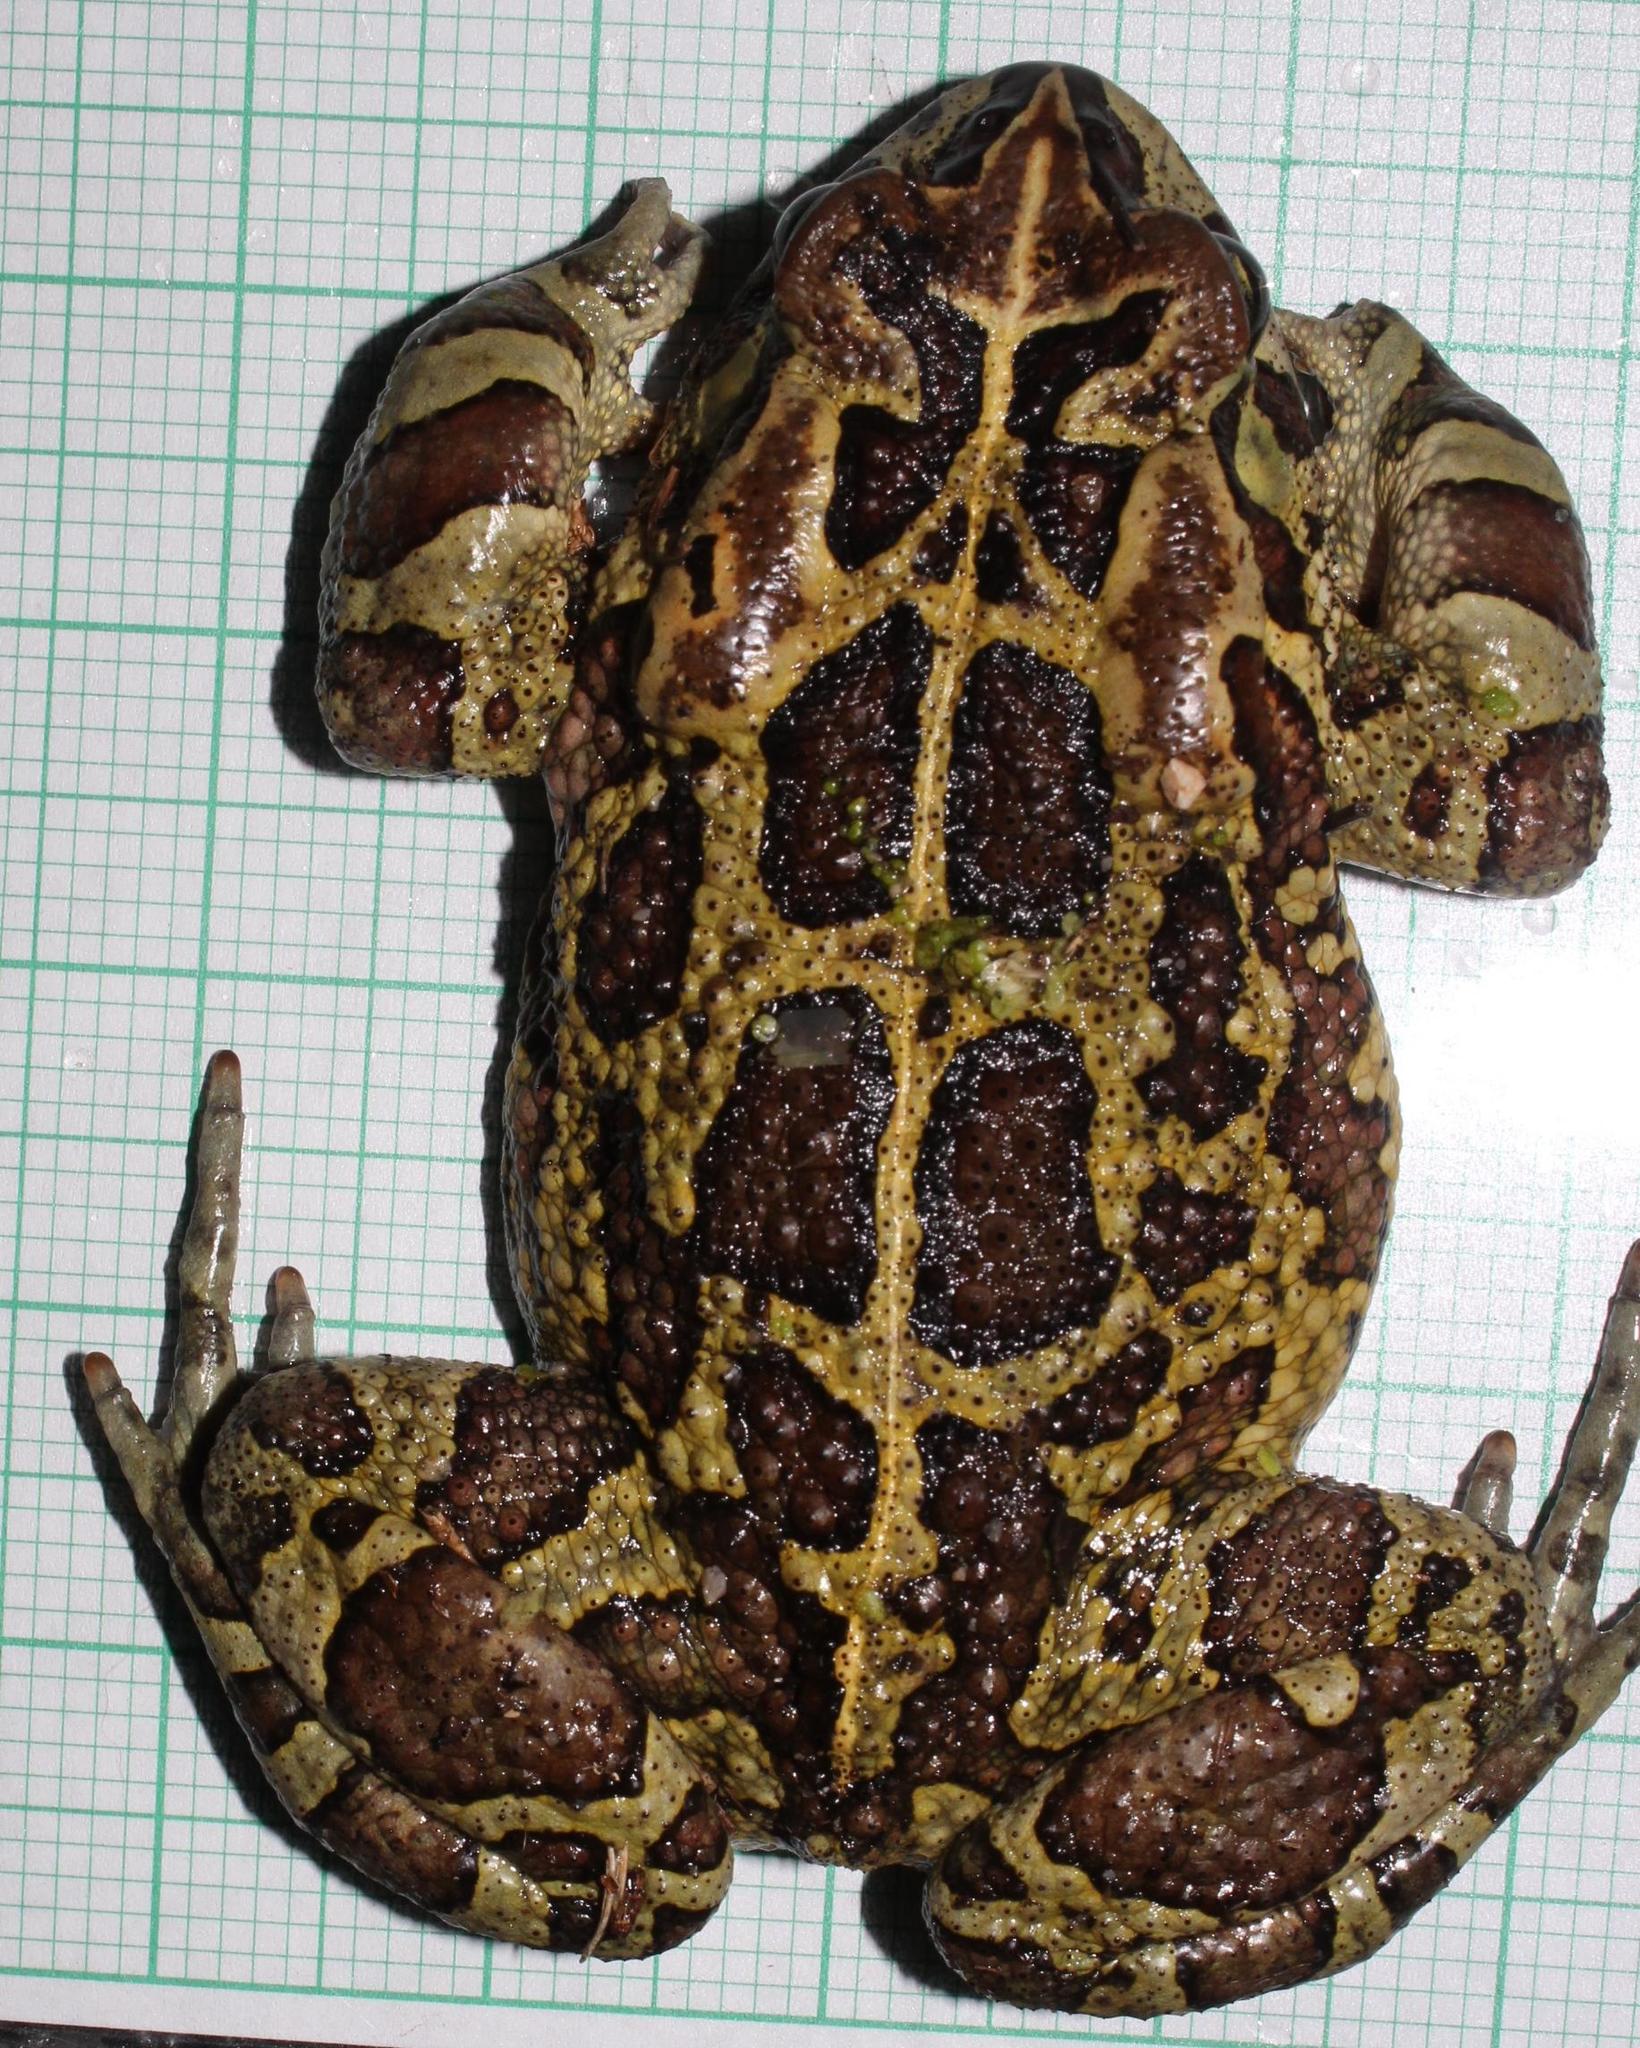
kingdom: Animalia
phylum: Chordata
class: Amphibia
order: Anura
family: Bufonidae
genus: Sclerophrys
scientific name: Sclerophrys pantherina
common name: Panther toad
